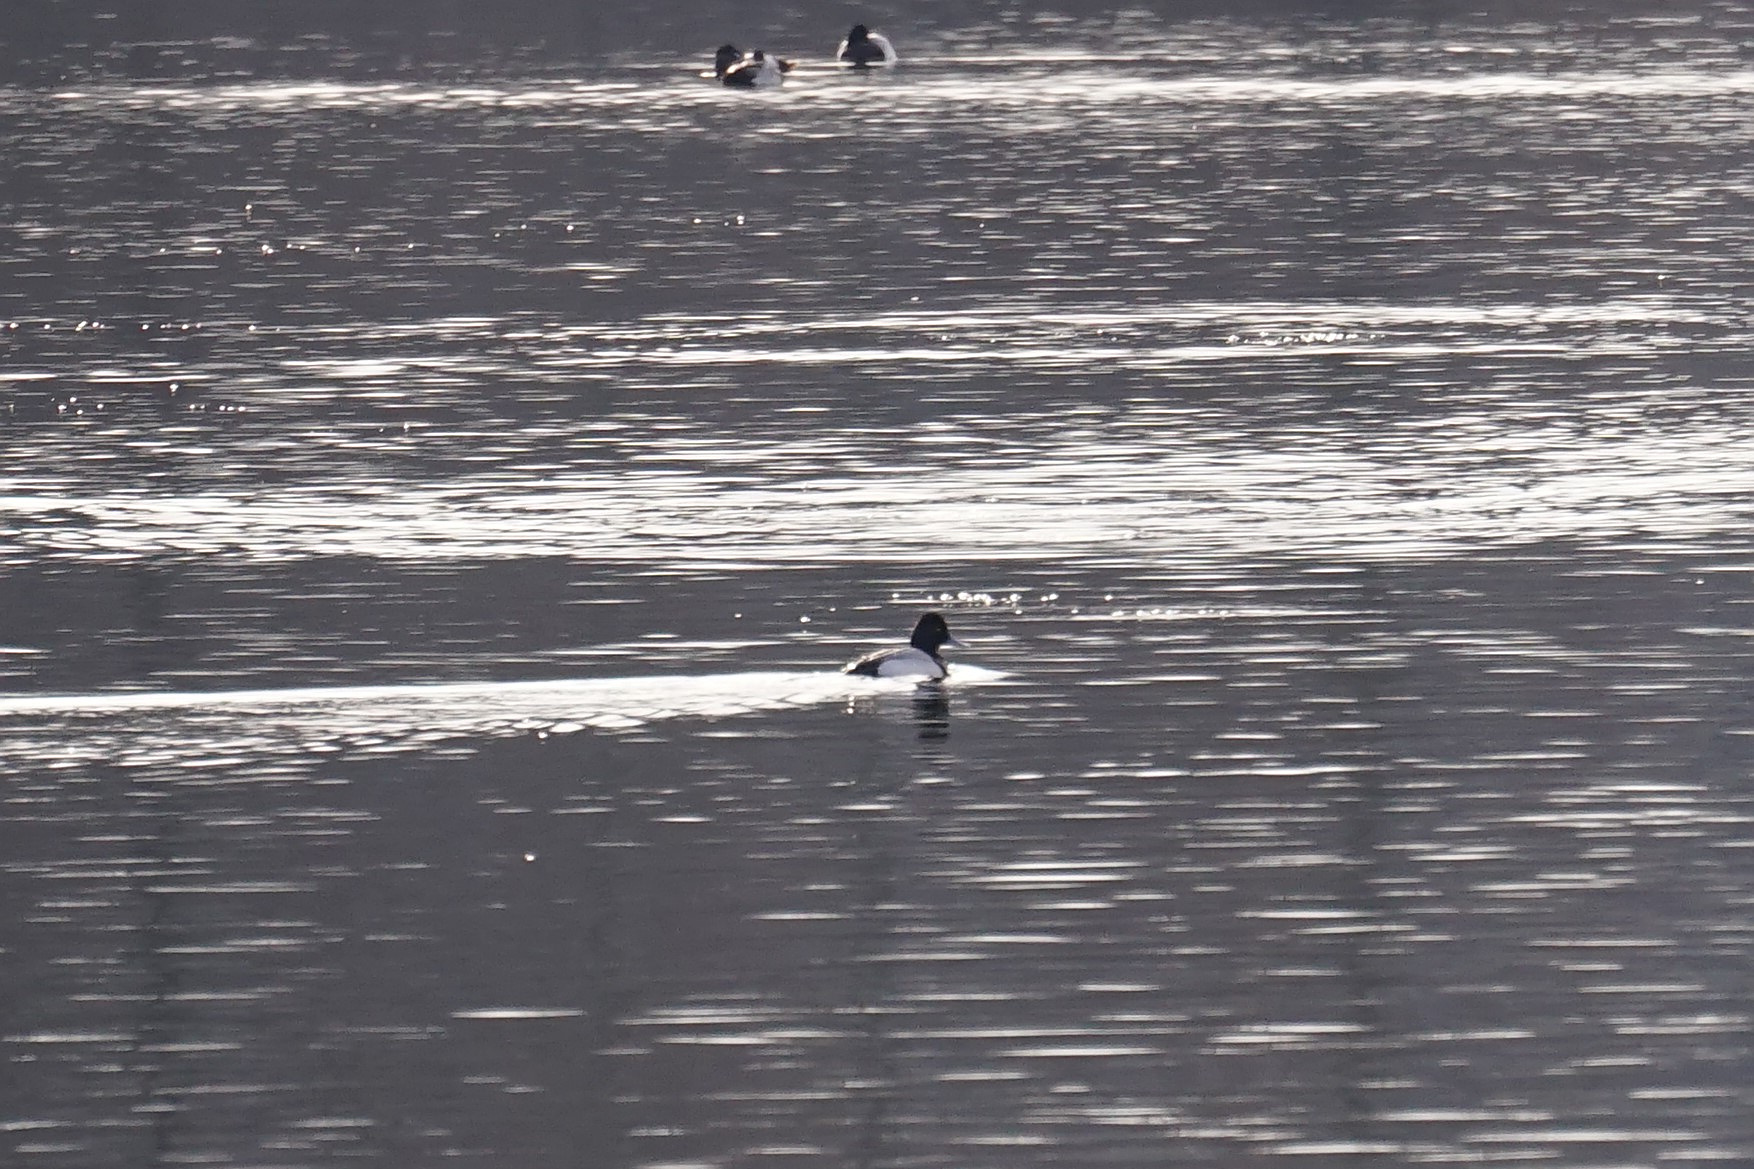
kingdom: Animalia
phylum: Chordata
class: Aves
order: Anseriformes
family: Anatidae
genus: Aythya
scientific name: Aythya affinis
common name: Lesser scaup
